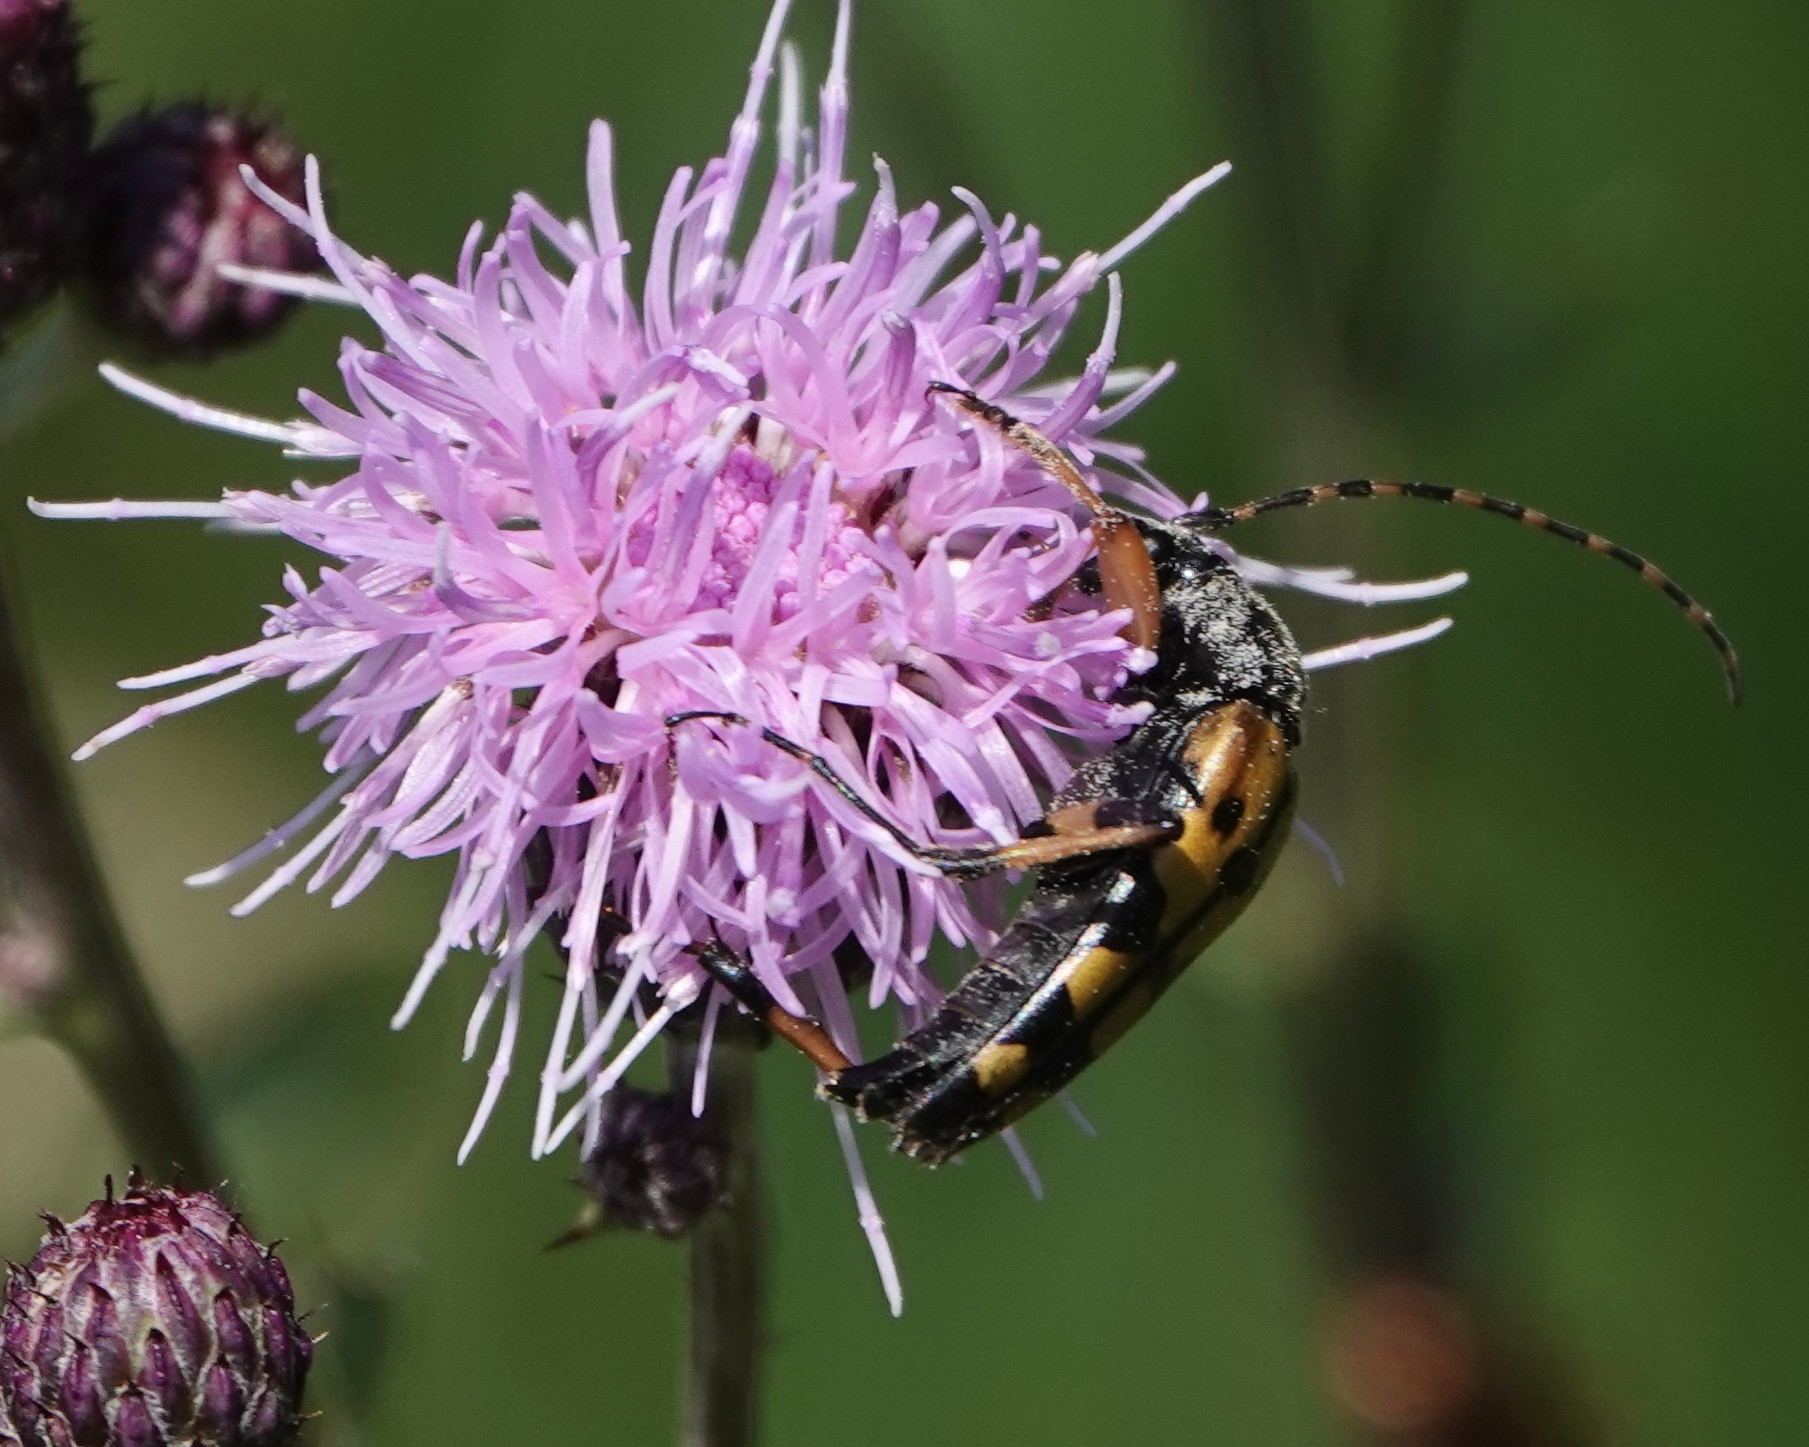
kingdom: Animalia
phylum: Arthropoda
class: Insecta
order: Coleoptera
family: Cerambycidae
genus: Rutpela
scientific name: Rutpela maculata
